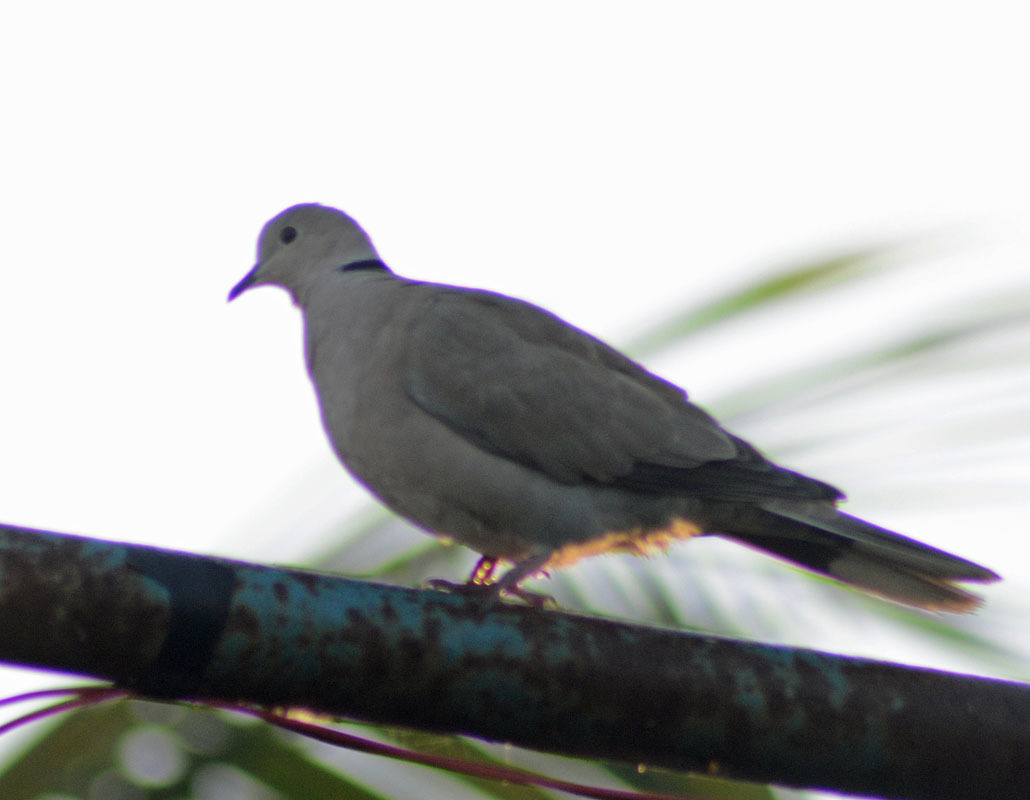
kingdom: Animalia
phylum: Chordata
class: Aves
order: Columbiformes
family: Columbidae
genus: Streptopelia
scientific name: Streptopelia decaocto
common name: Eurasian collared dove
